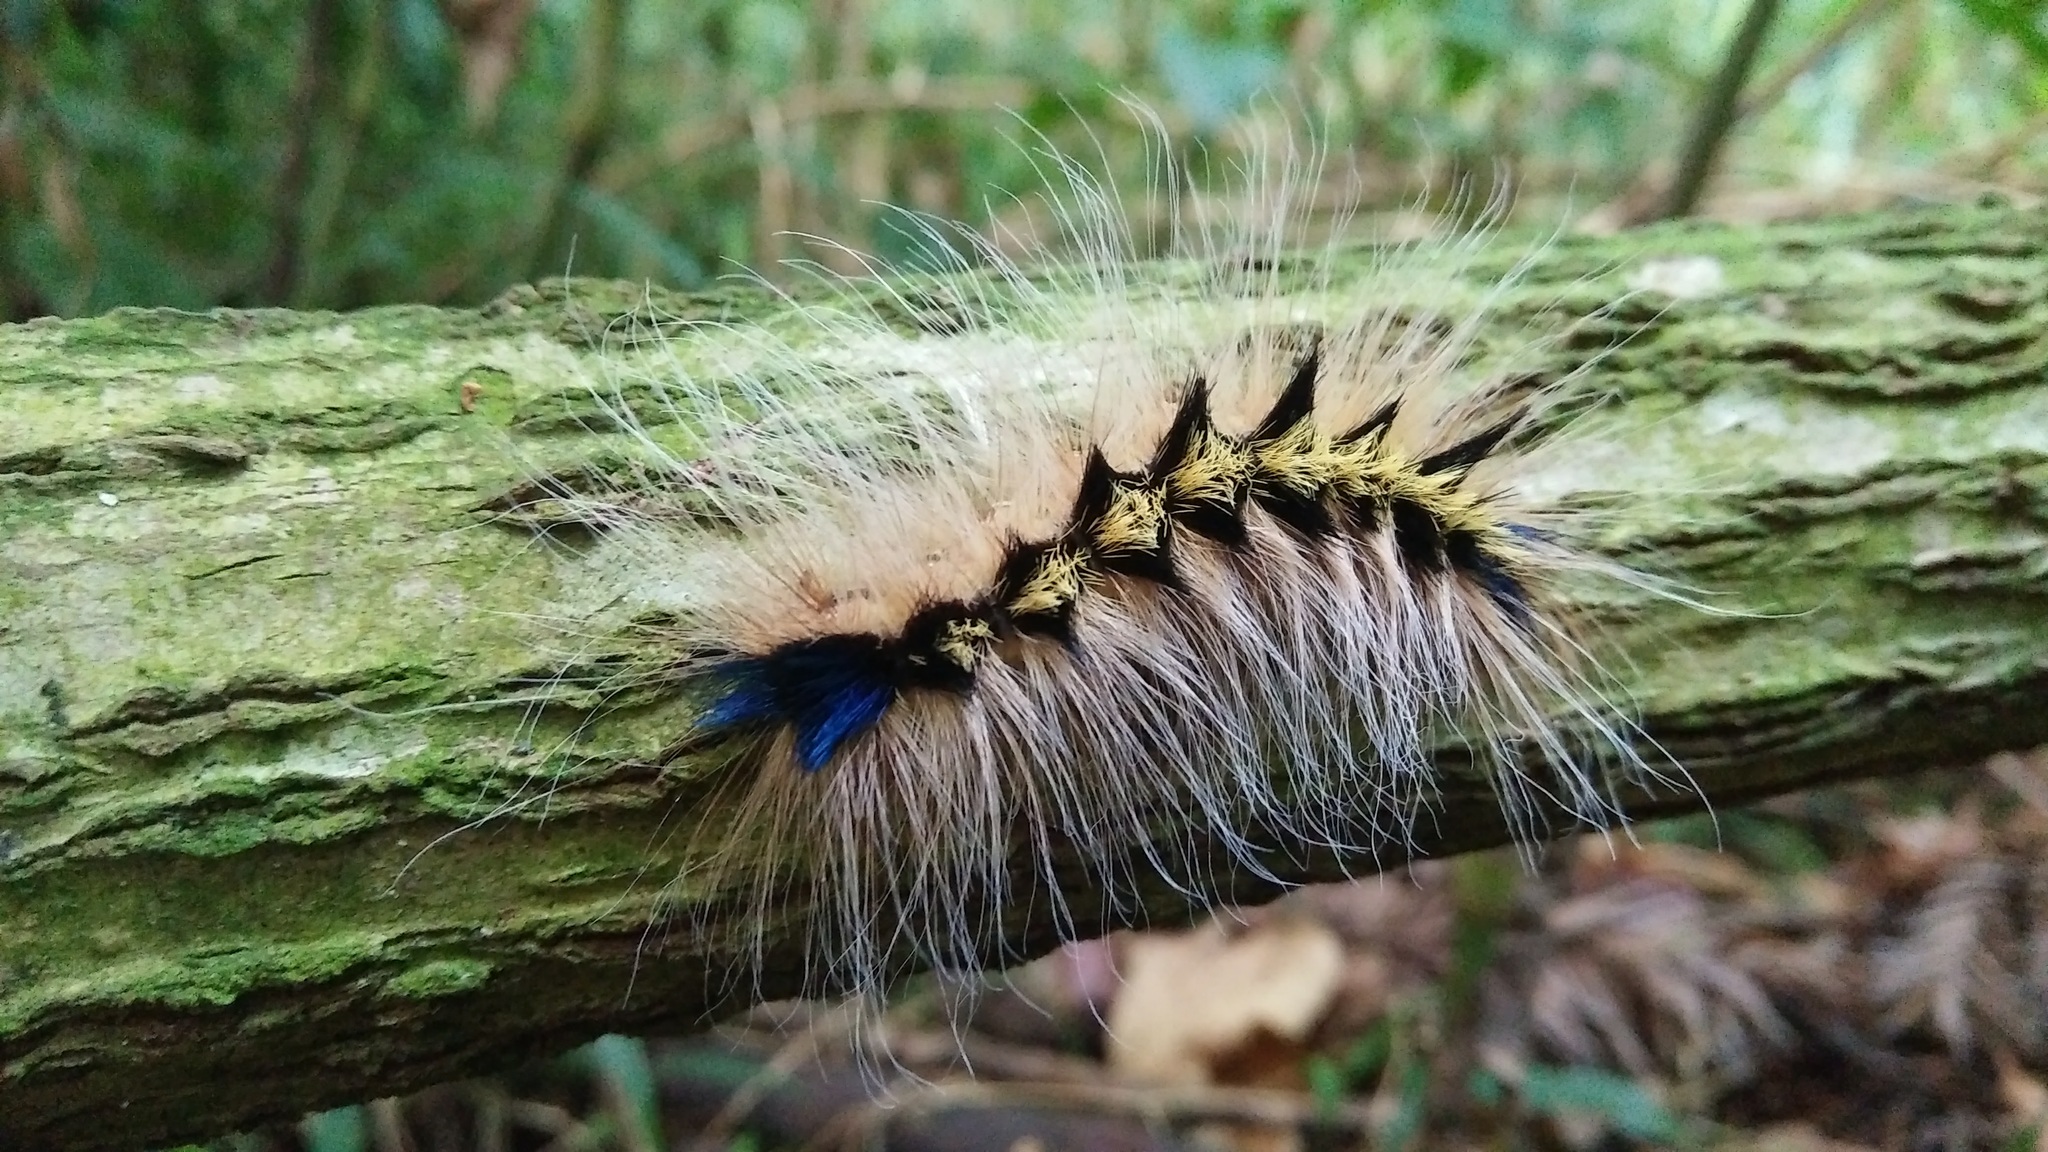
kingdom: Animalia
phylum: Arthropoda
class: Insecta
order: Lepidoptera
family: Noctuidae
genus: Acronicta
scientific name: Acronicta gigasa
